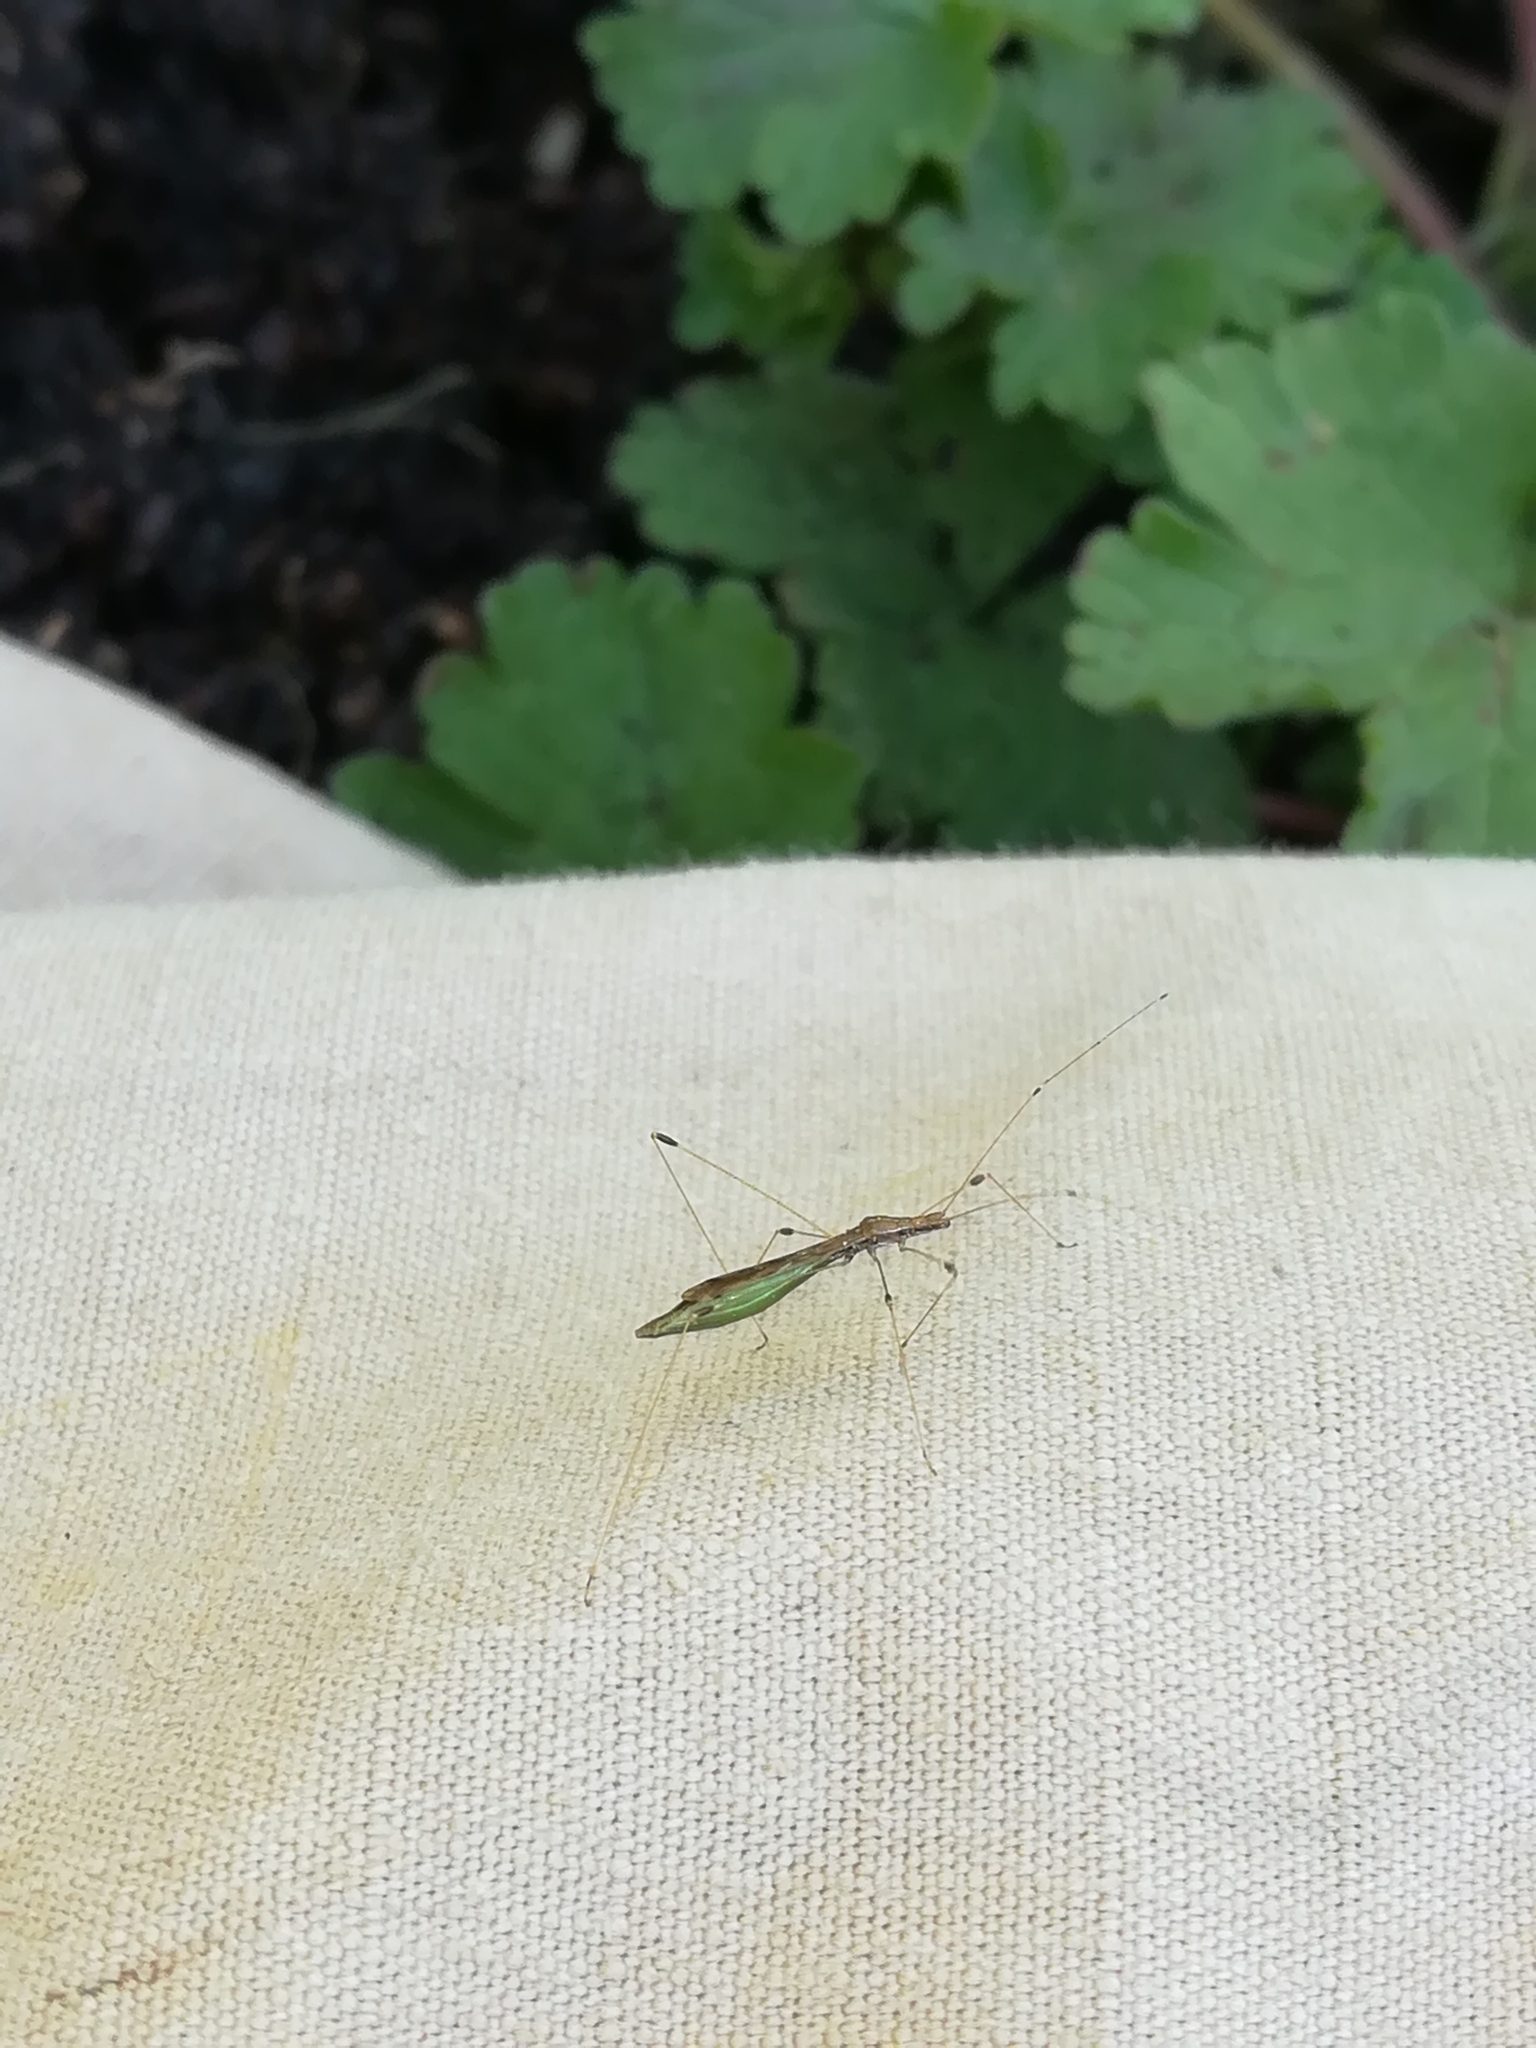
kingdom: Animalia
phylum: Arthropoda
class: Insecta
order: Hemiptera
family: Berytidae
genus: Apoplymus
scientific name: Apoplymus pectoralis
